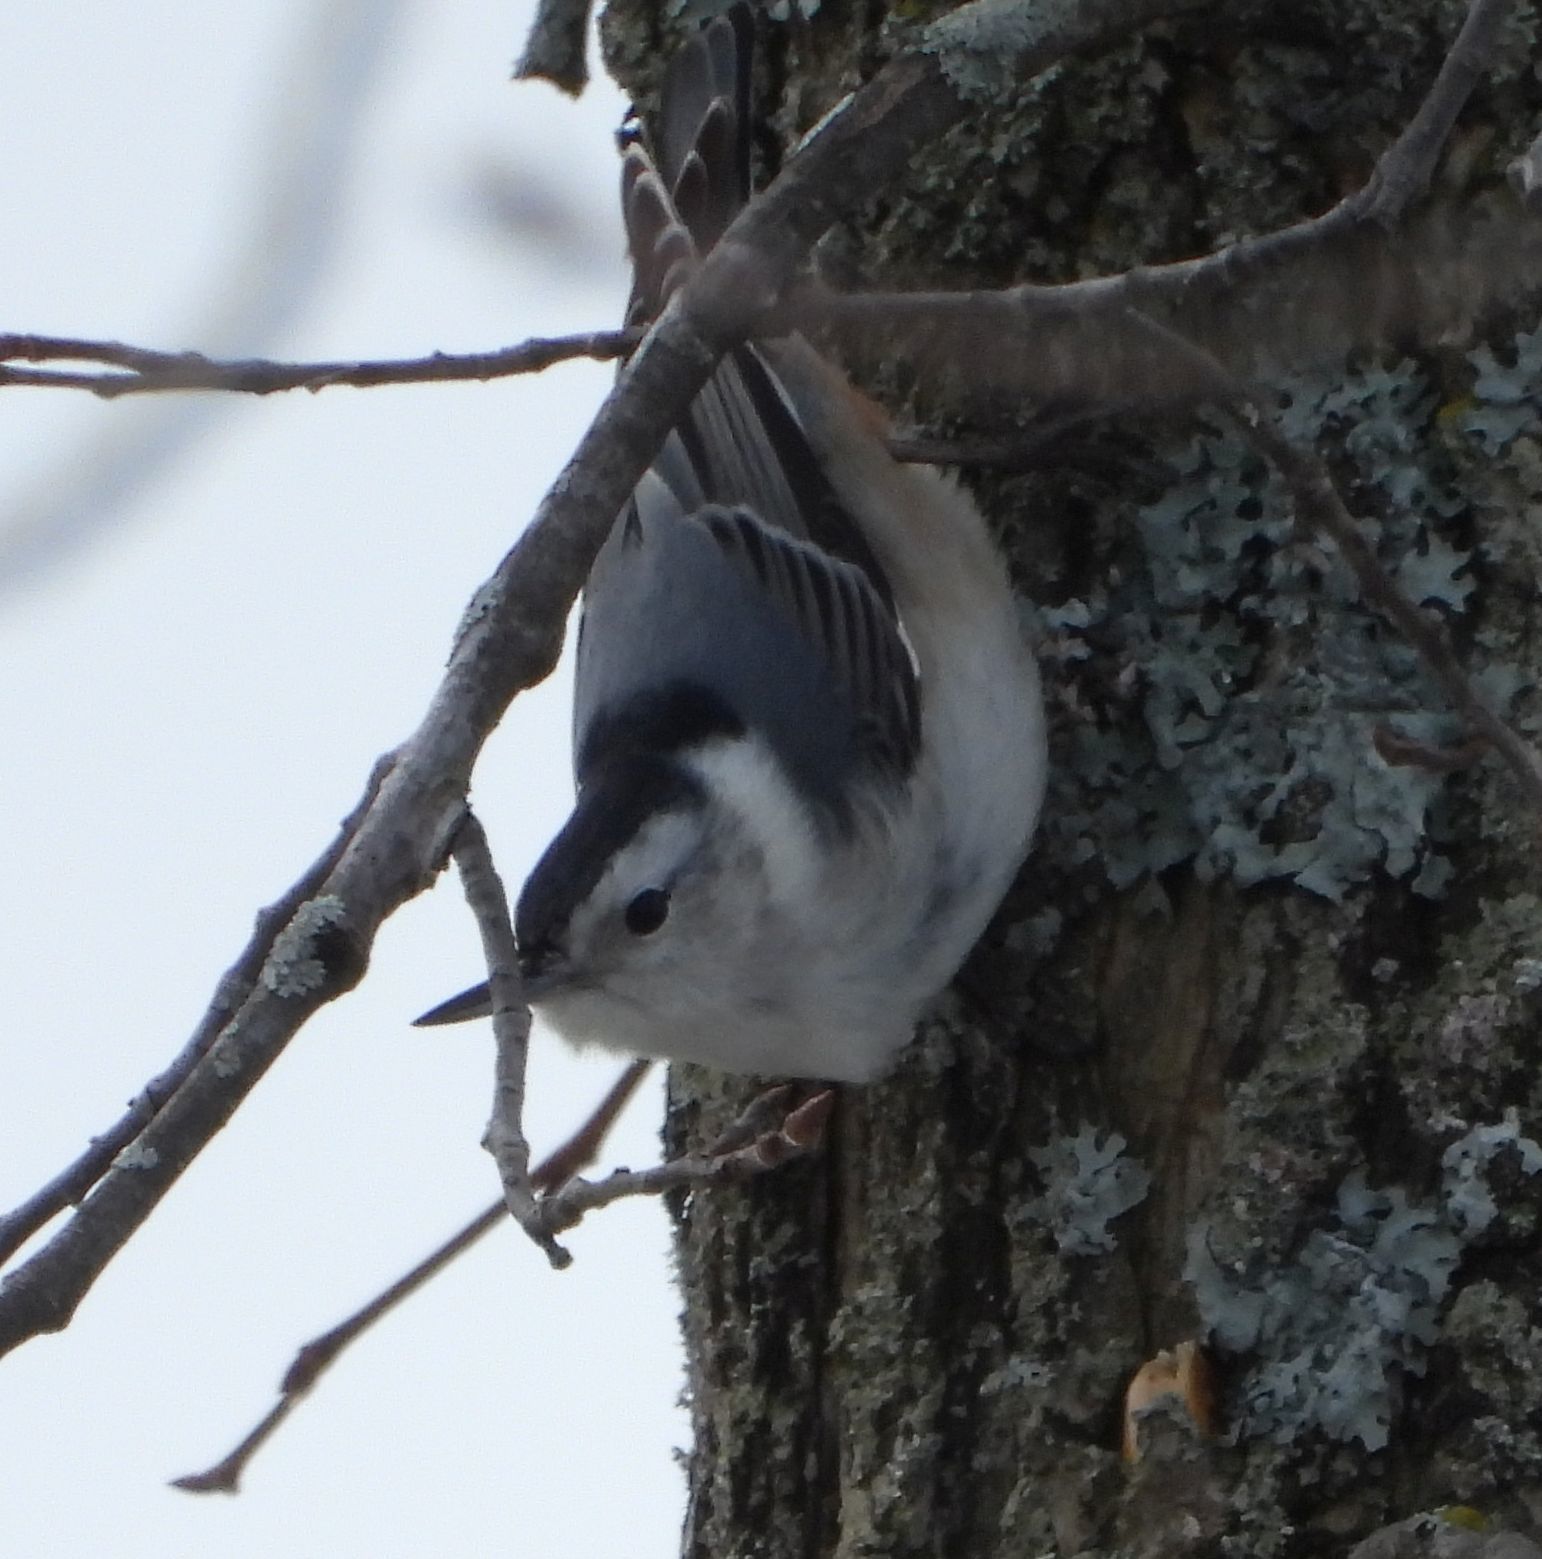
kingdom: Animalia
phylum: Chordata
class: Aves
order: Passeriformes
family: Sittidae
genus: Sitta
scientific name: Sitta carolinensis
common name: White-breasted nuthatch
